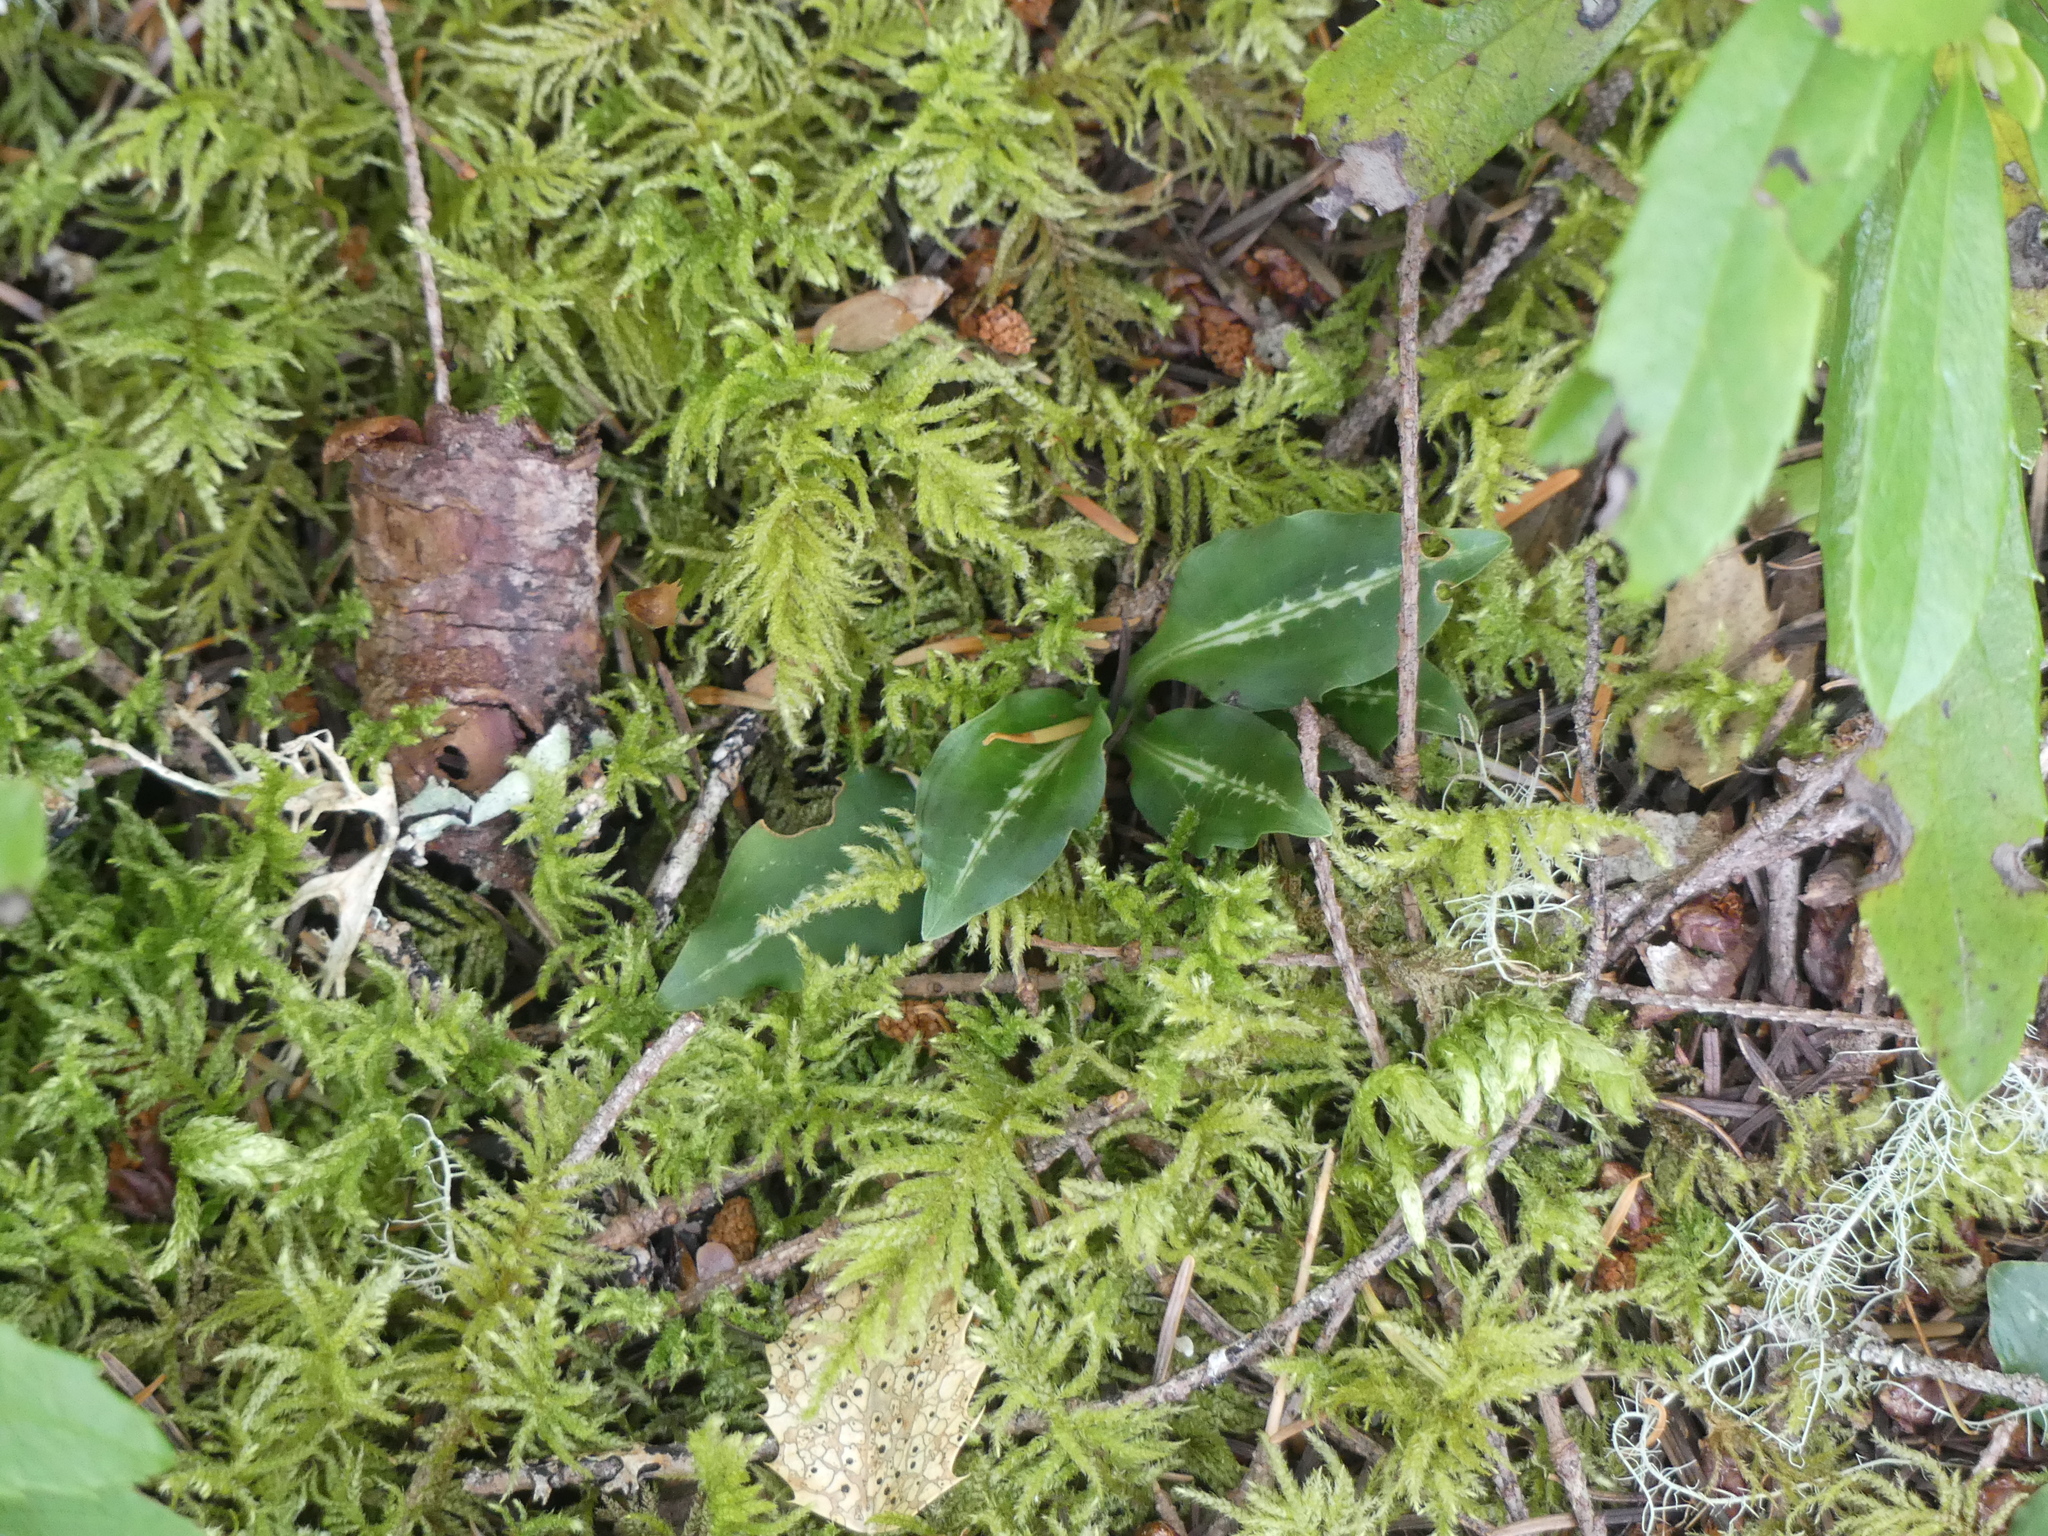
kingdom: Plantae
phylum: Tracheophyta
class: Liliopsida
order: Asparagales
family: Orchidaceae
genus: Goodyera
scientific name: Goodyera oblongifolia
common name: Giant rattlesnake-plantain
